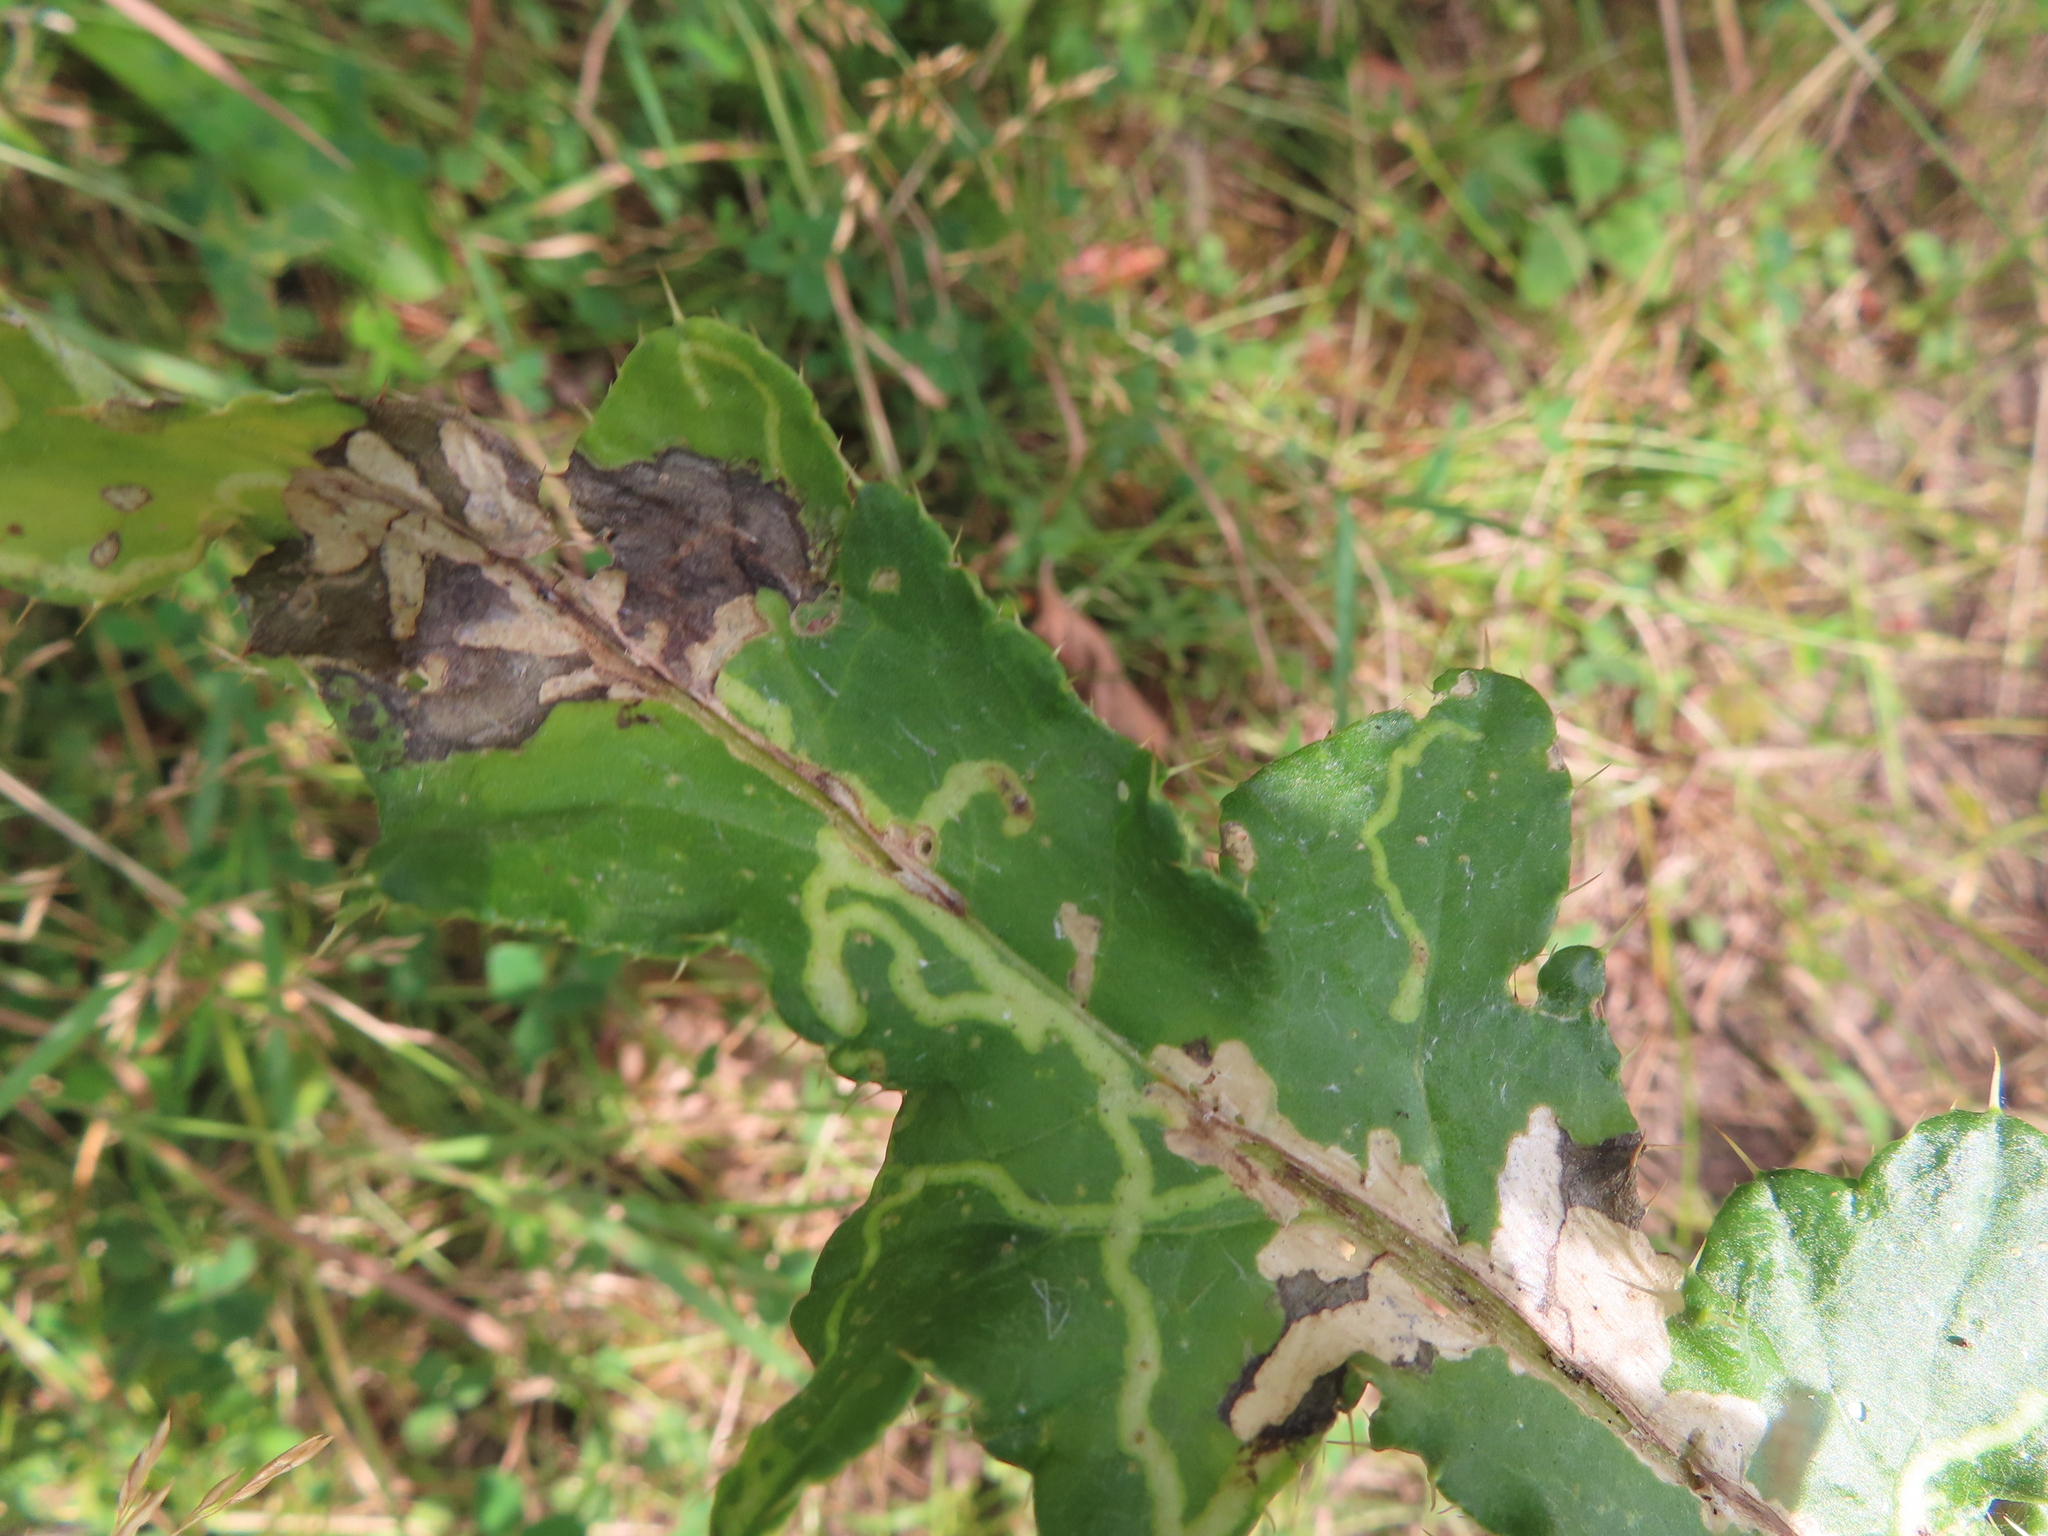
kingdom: Animalia
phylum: Arthropoda
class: Insecta
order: Diptera
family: Agromyzidae
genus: Phytomyza
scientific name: Phytomyza spinaciae
